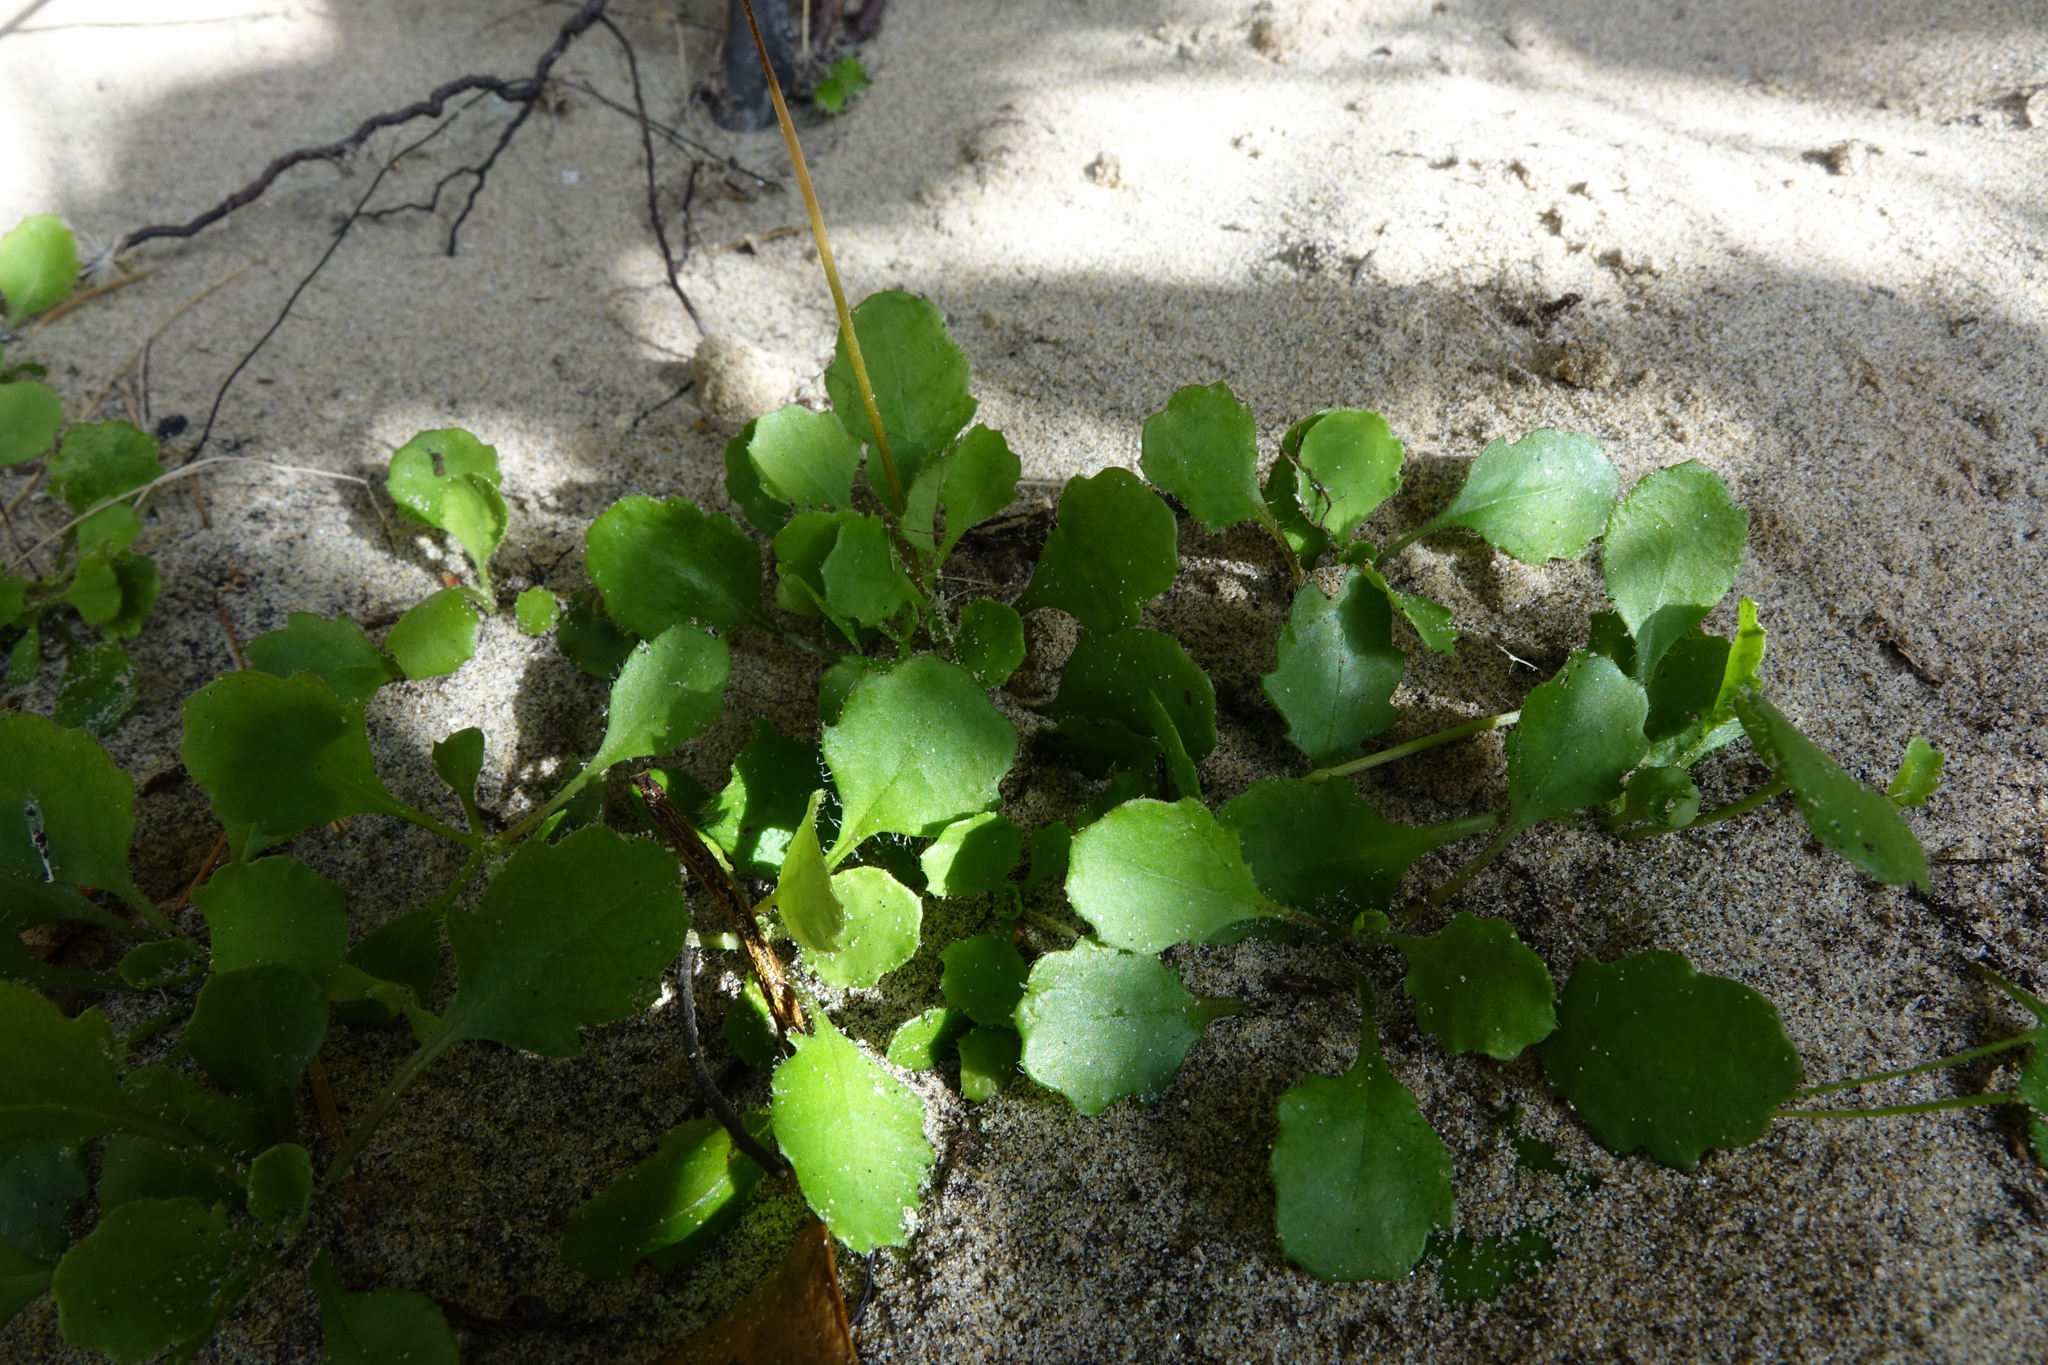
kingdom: Plantae
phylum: Tracheophyta
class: Magnoliopsida
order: Asterales
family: Asteraceae
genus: Lagenophora
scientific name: Lagenophora pumila
